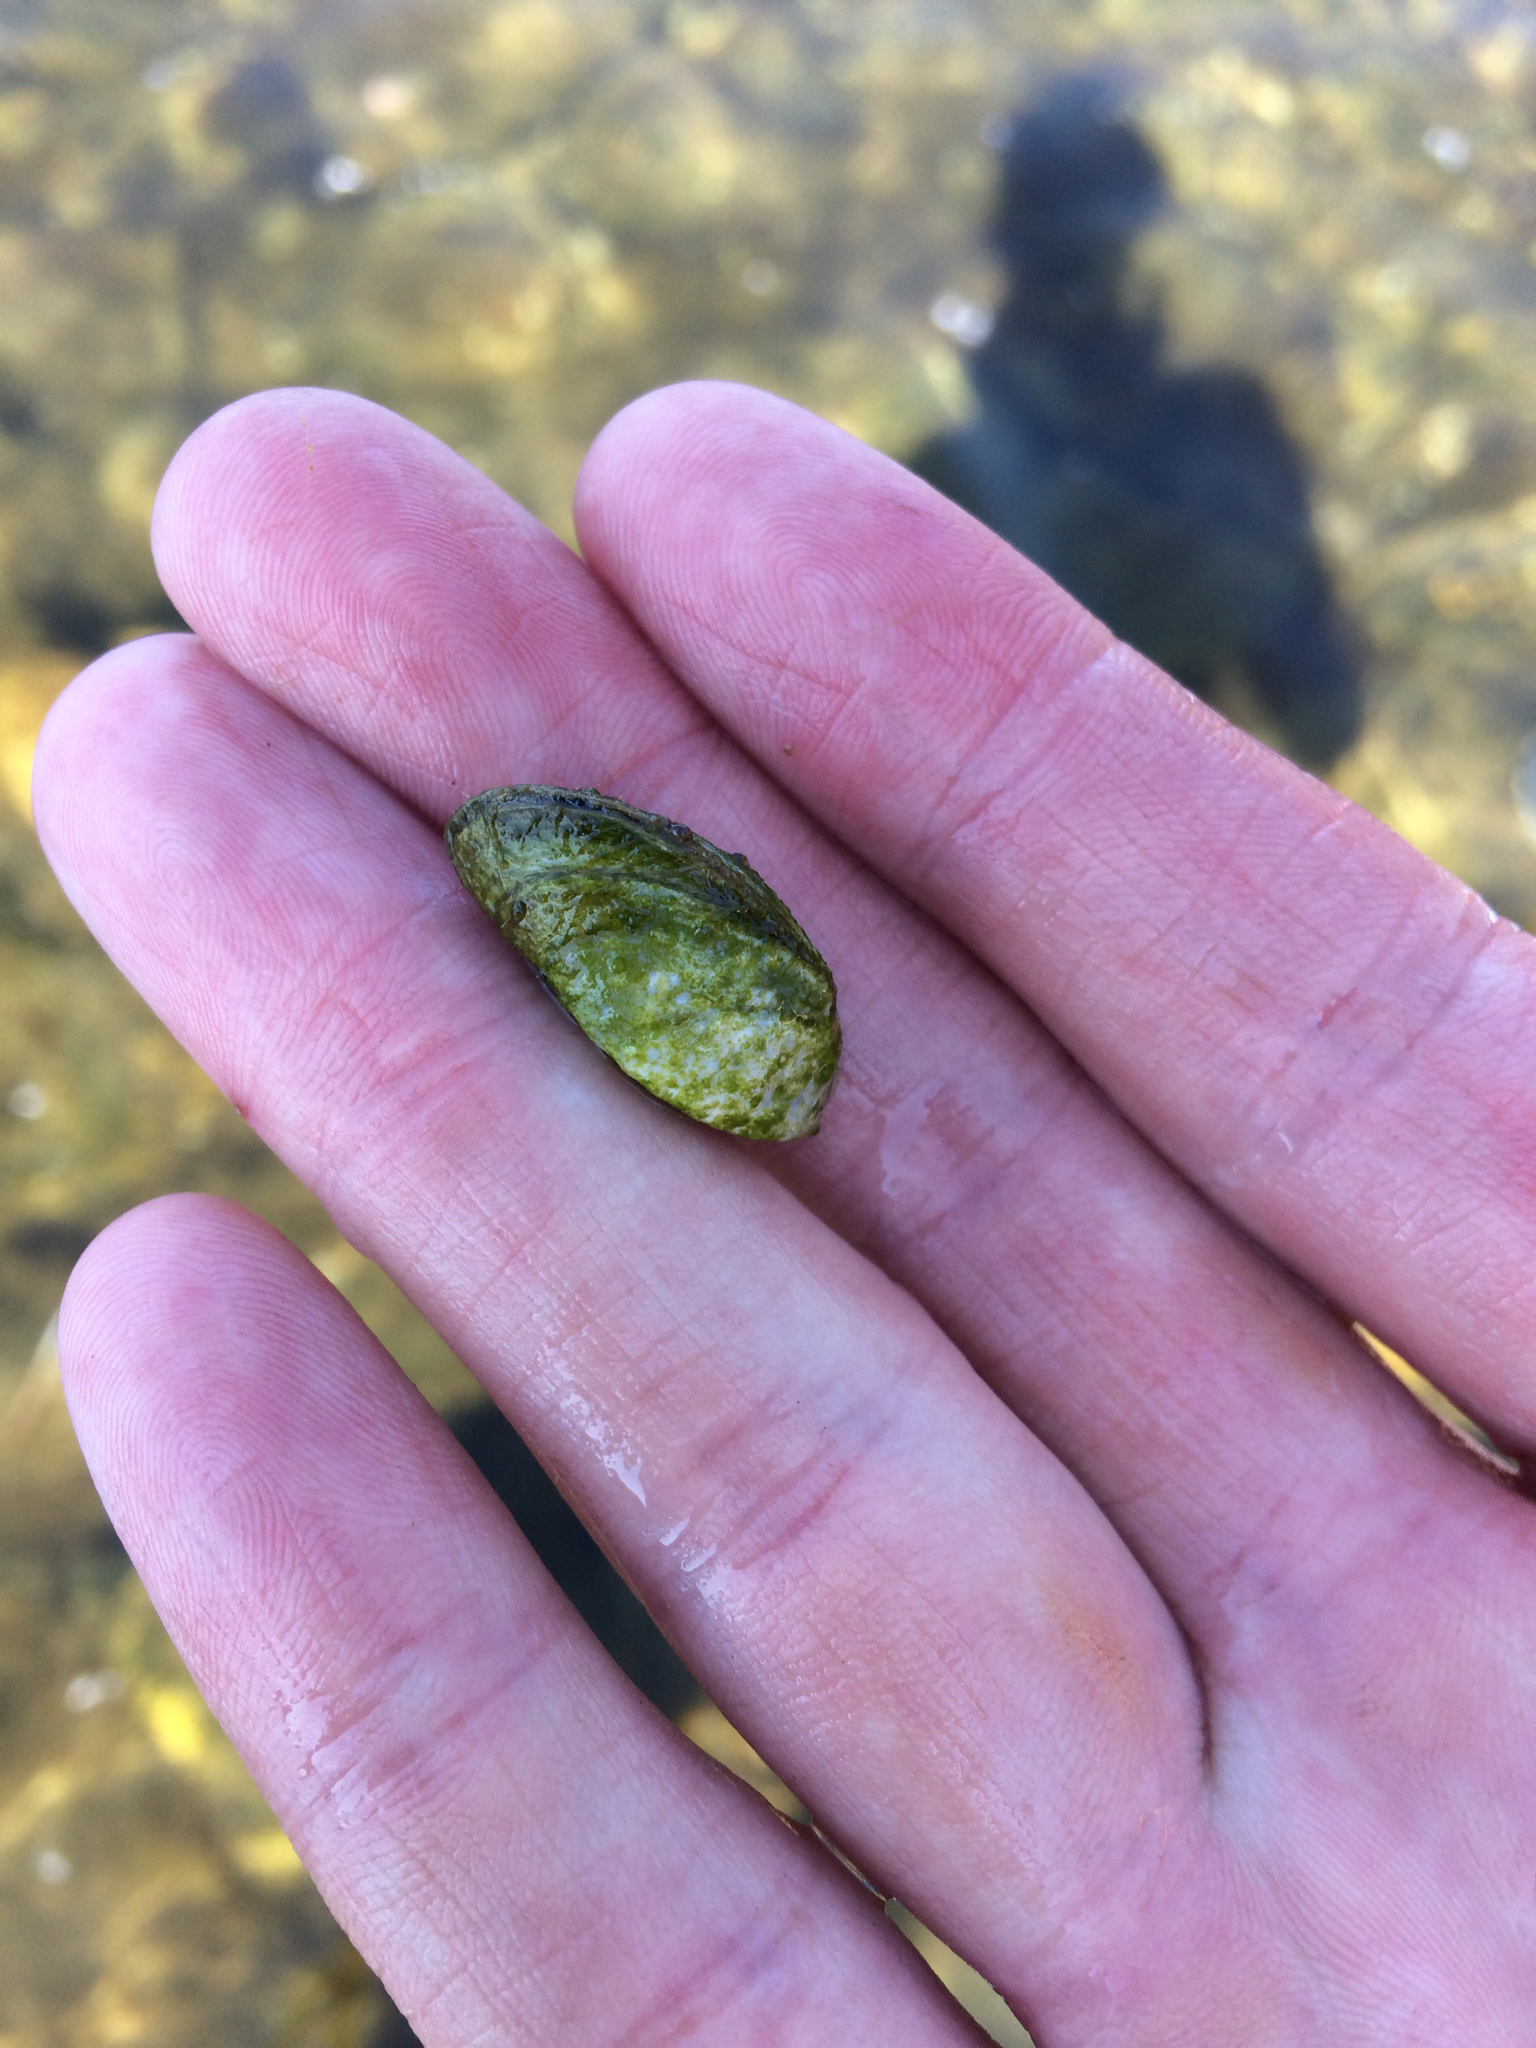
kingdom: Animalia
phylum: Mollusca
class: Bivalvia
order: Myida
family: Dreissenidae
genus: Dreissena
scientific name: Dreissena polymorpha
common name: Zebra mussel
